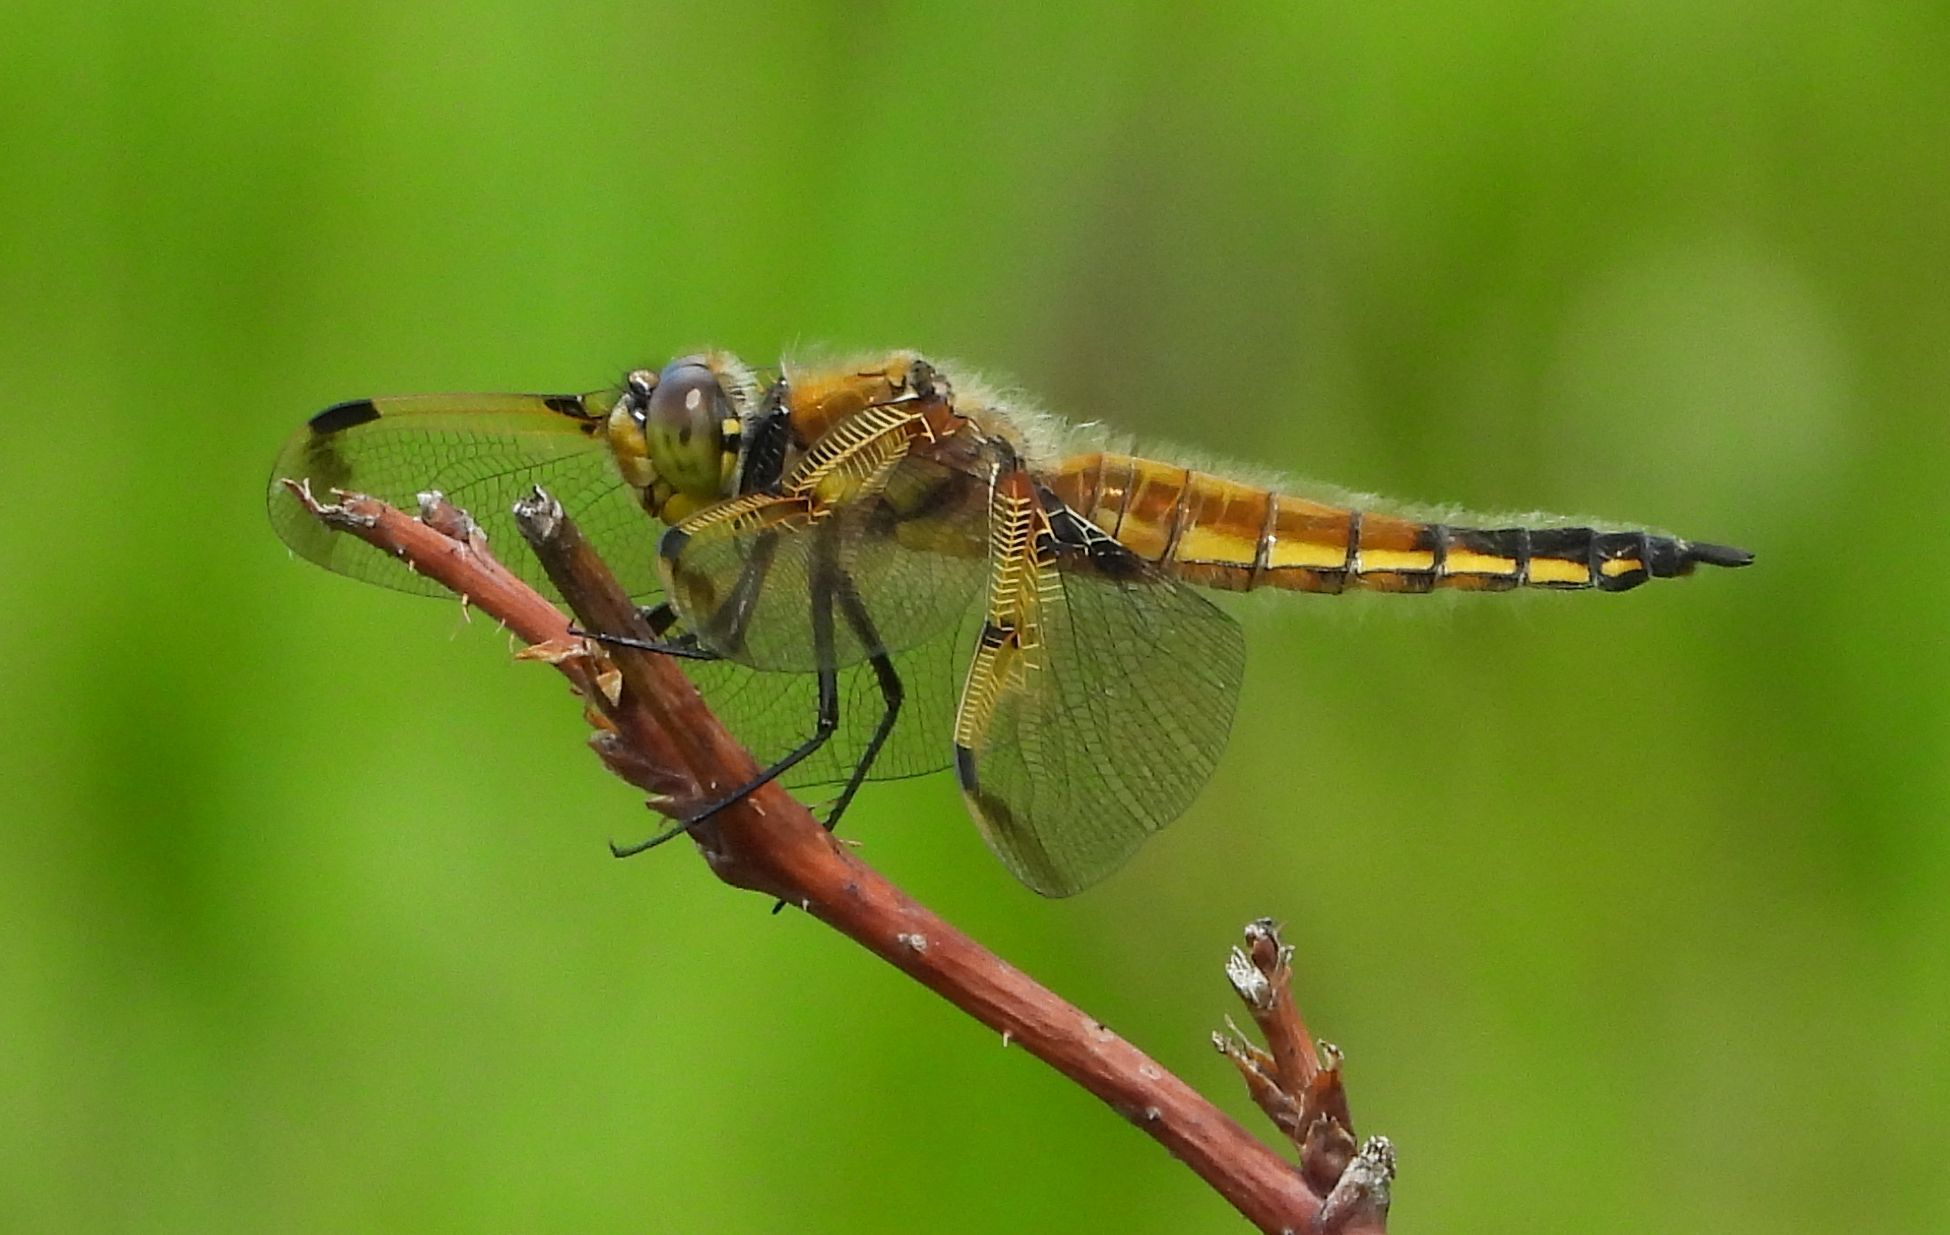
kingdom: Animalia
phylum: Arthropoda
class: Insecta
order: Odonata
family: Libellulidae
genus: Libellula
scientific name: Libellula quadrimaculata
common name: Four-spotted chaser
